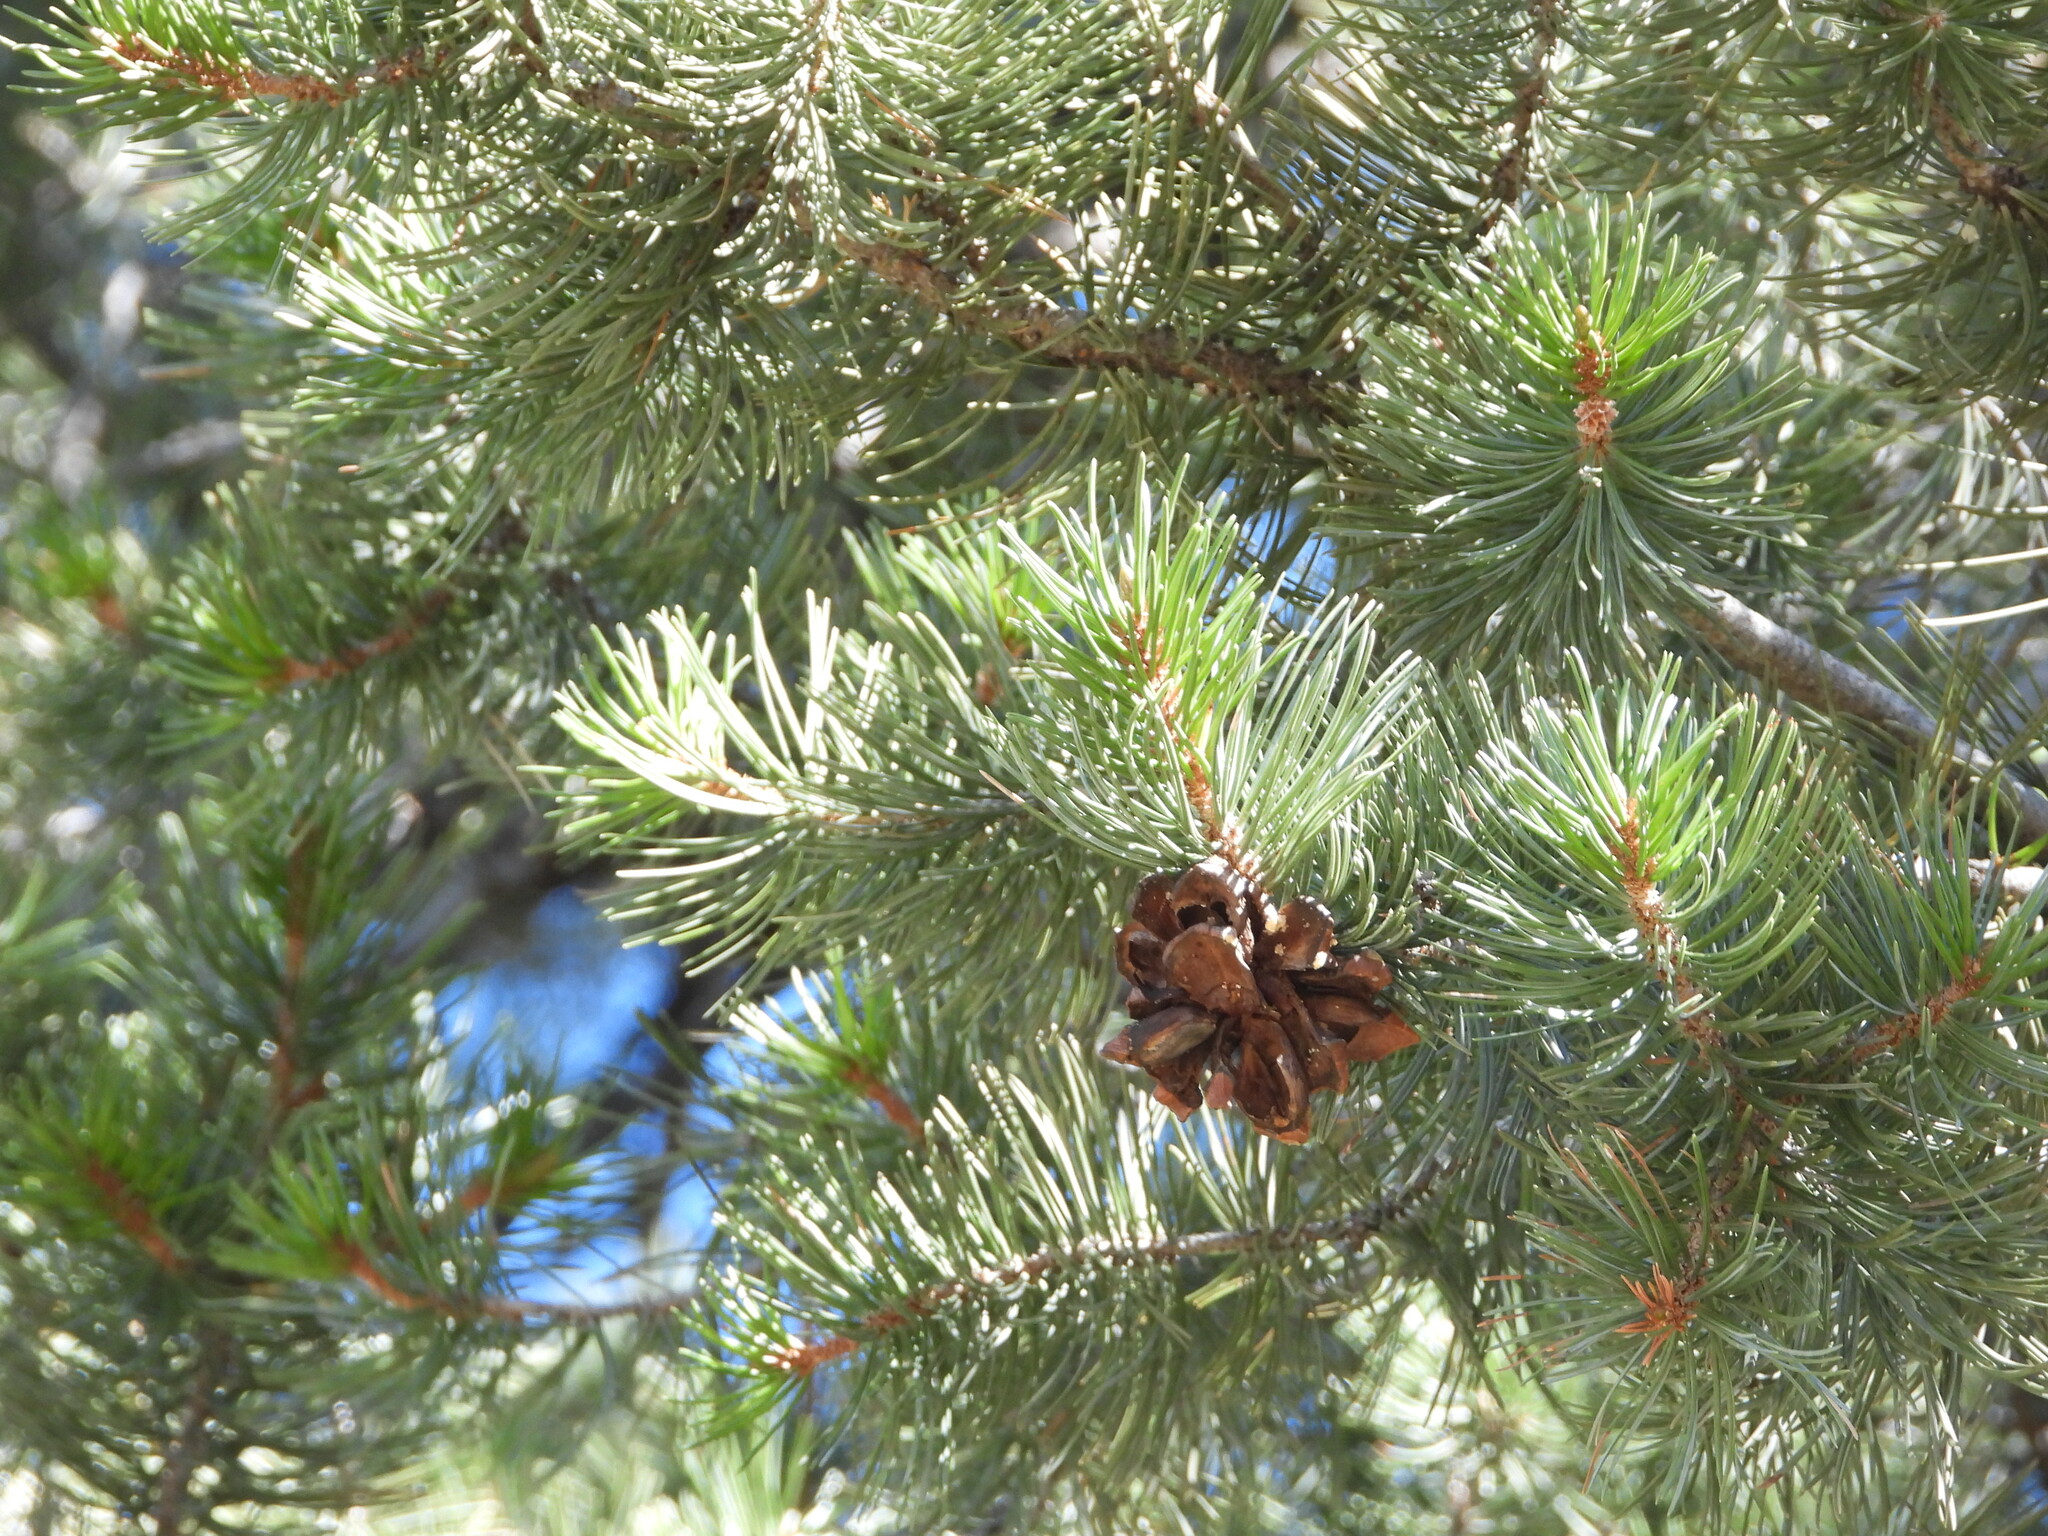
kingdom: Plantae
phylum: Tracheophyta
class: Pinopsida
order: Pinales
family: Pinaceae
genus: Pinus
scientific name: Pinus cembroides
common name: Mexican nut pine
